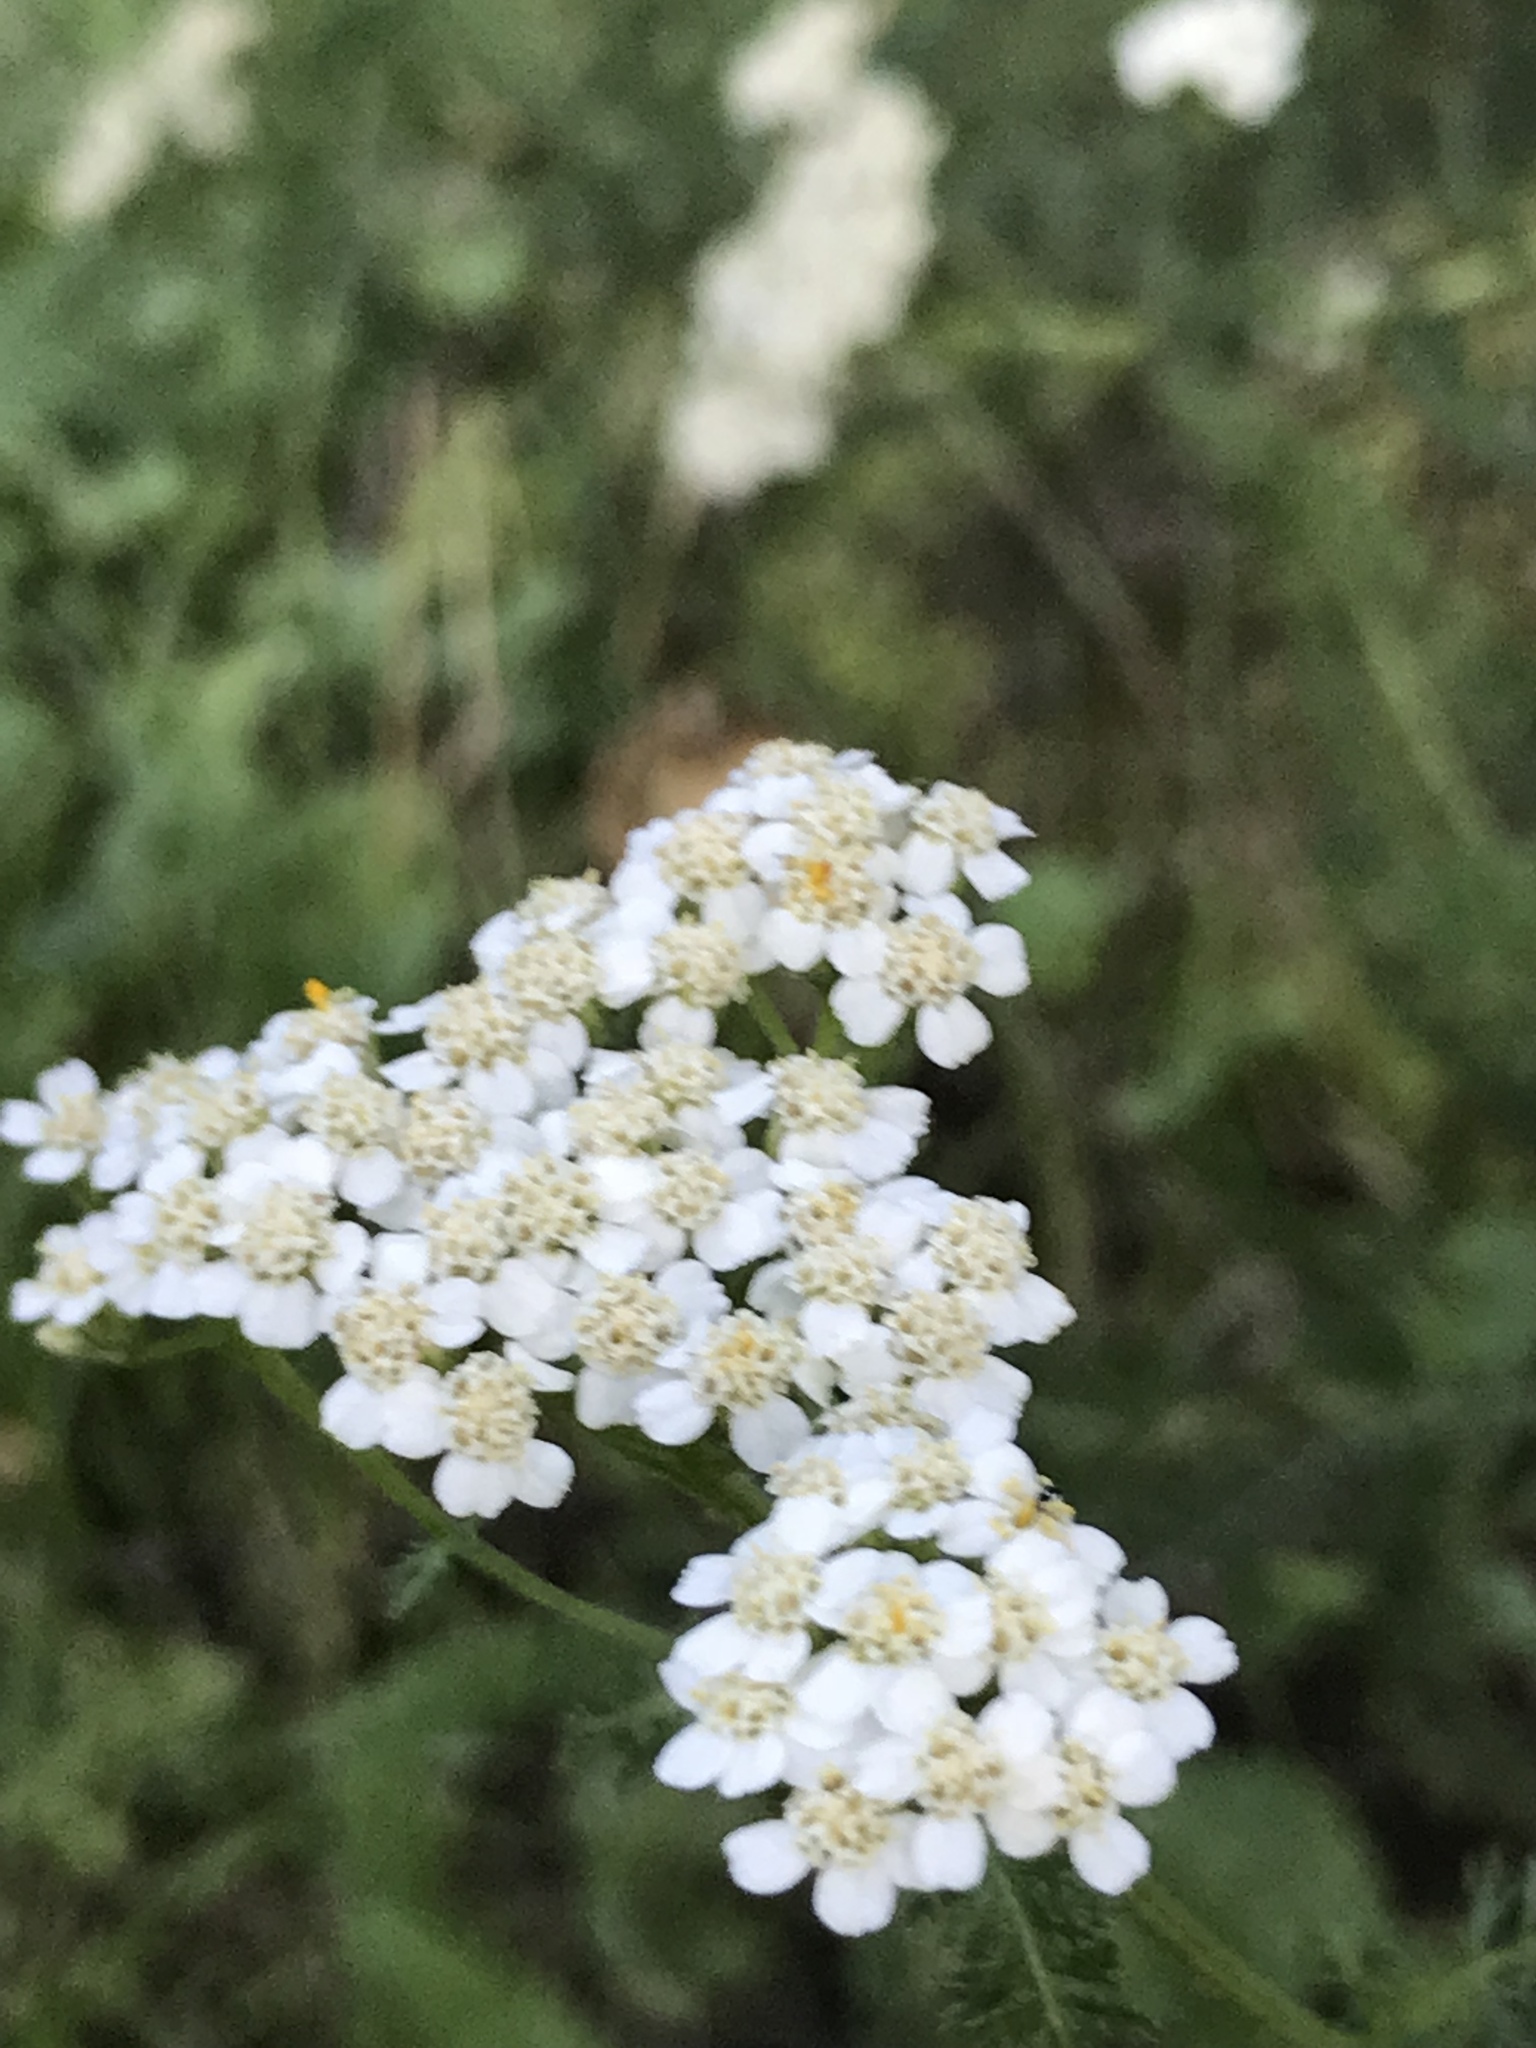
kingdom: Plantae
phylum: Tracheophyta
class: Magnoliopsida
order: Asterales
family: Asteraceae
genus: Achillea
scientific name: Achillea millefolium
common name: Yarrow
